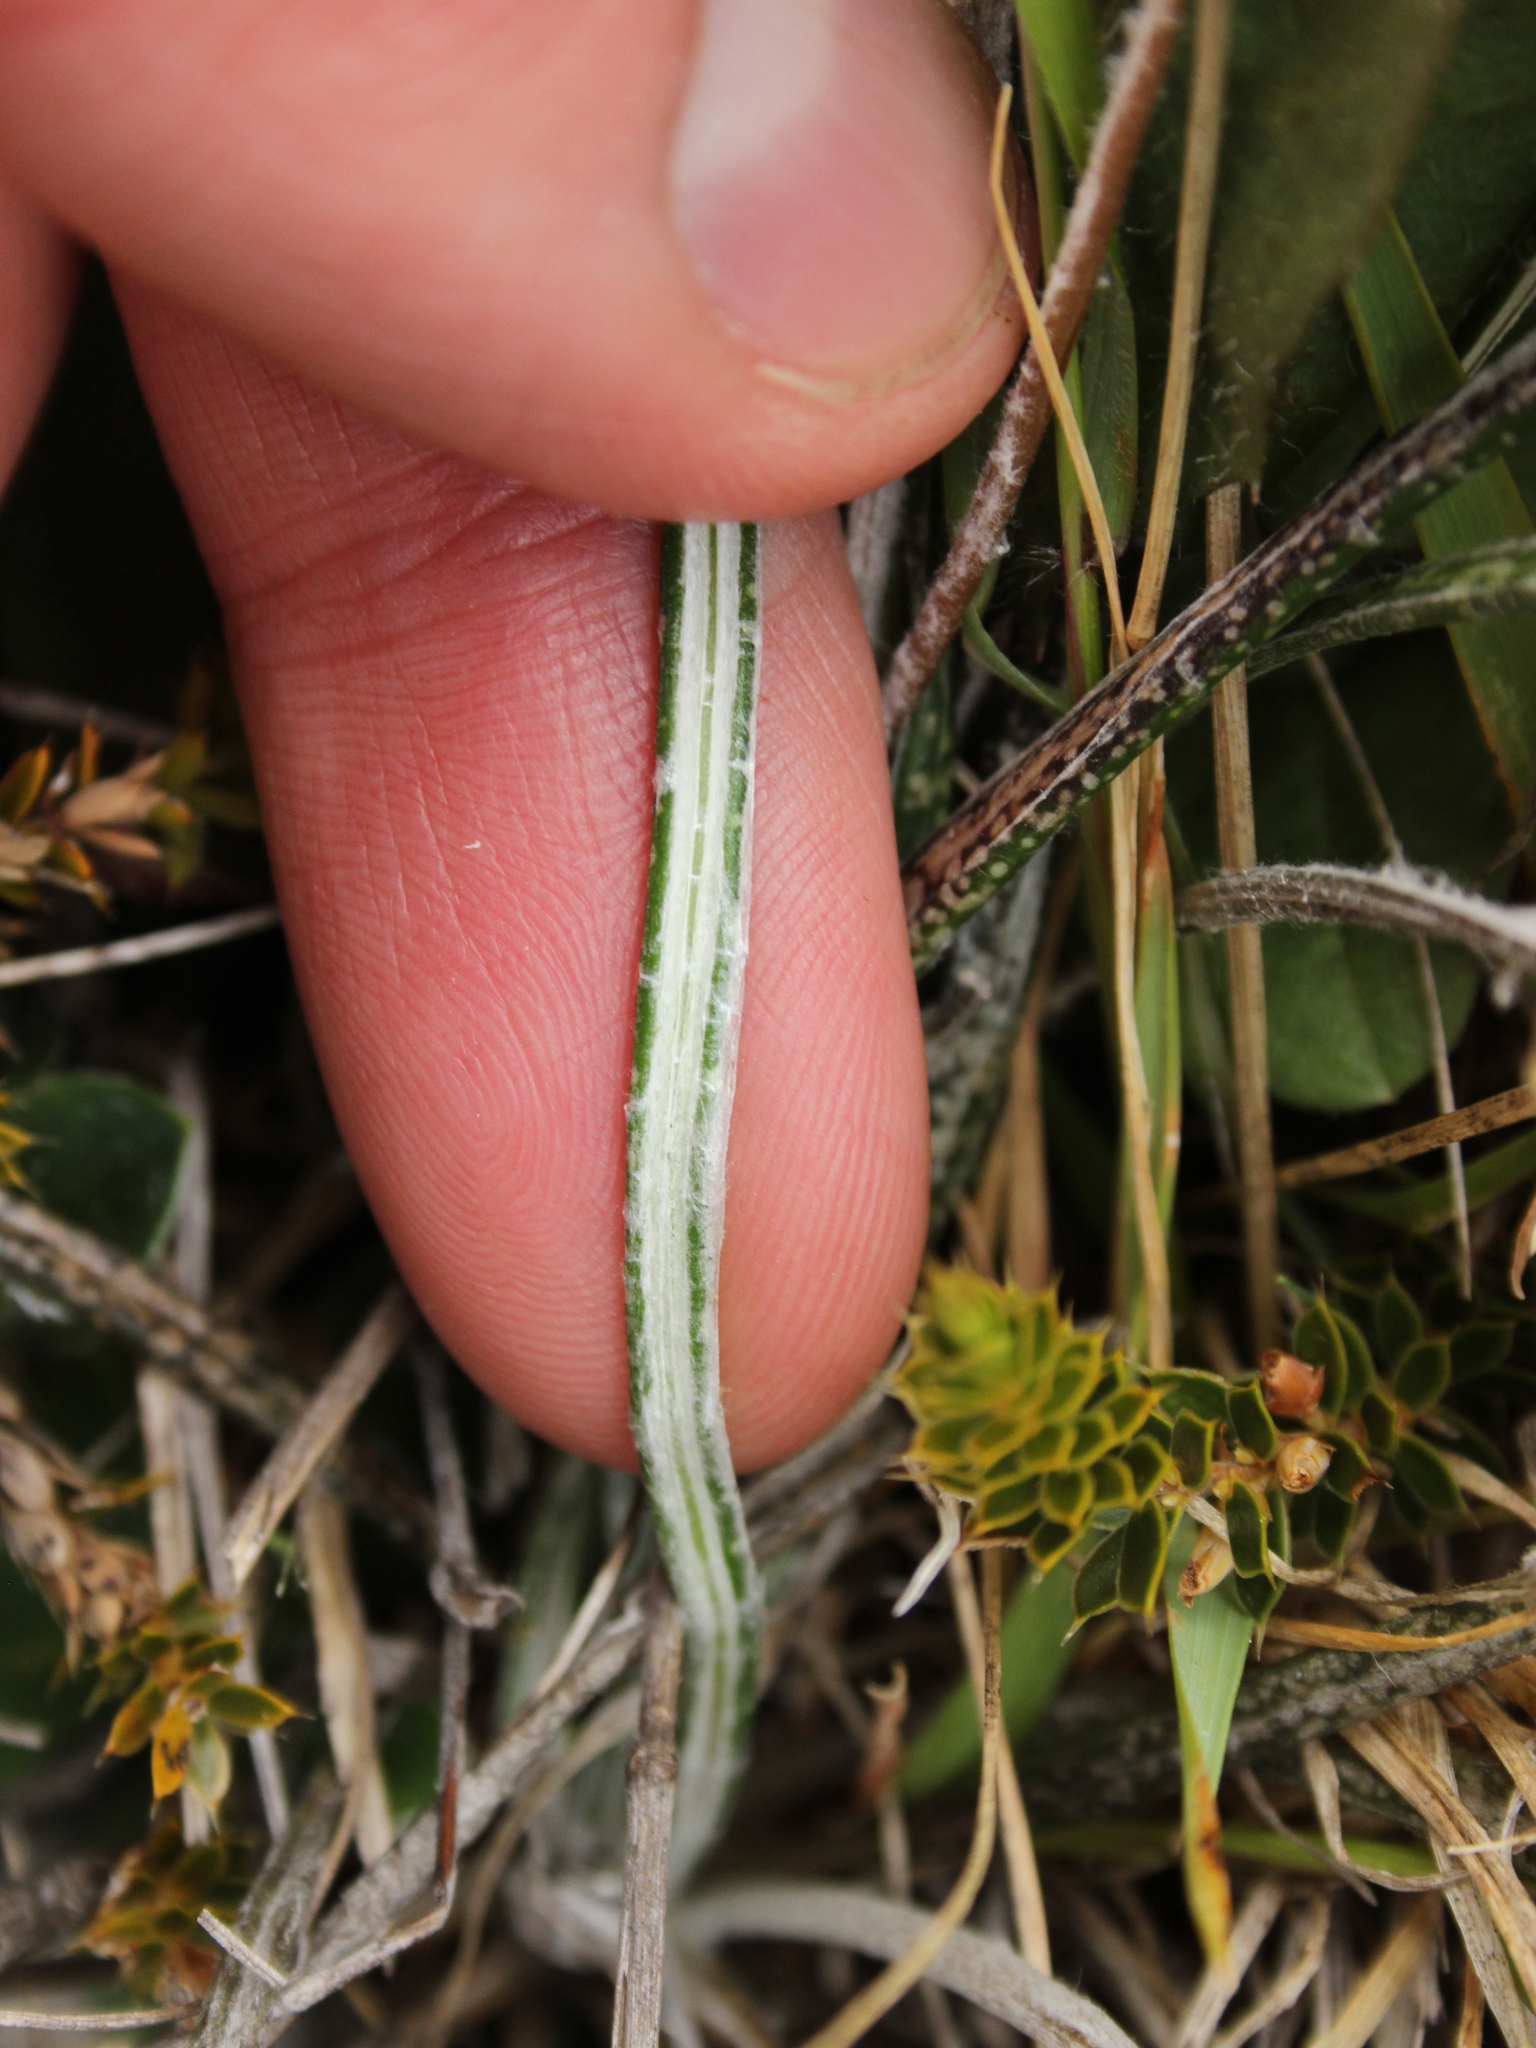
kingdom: Plantae
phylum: Tracheophyta
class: Magnoliopsida
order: Asterales
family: Asteraceae
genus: Celmisia
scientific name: Celmisia gracilenta
